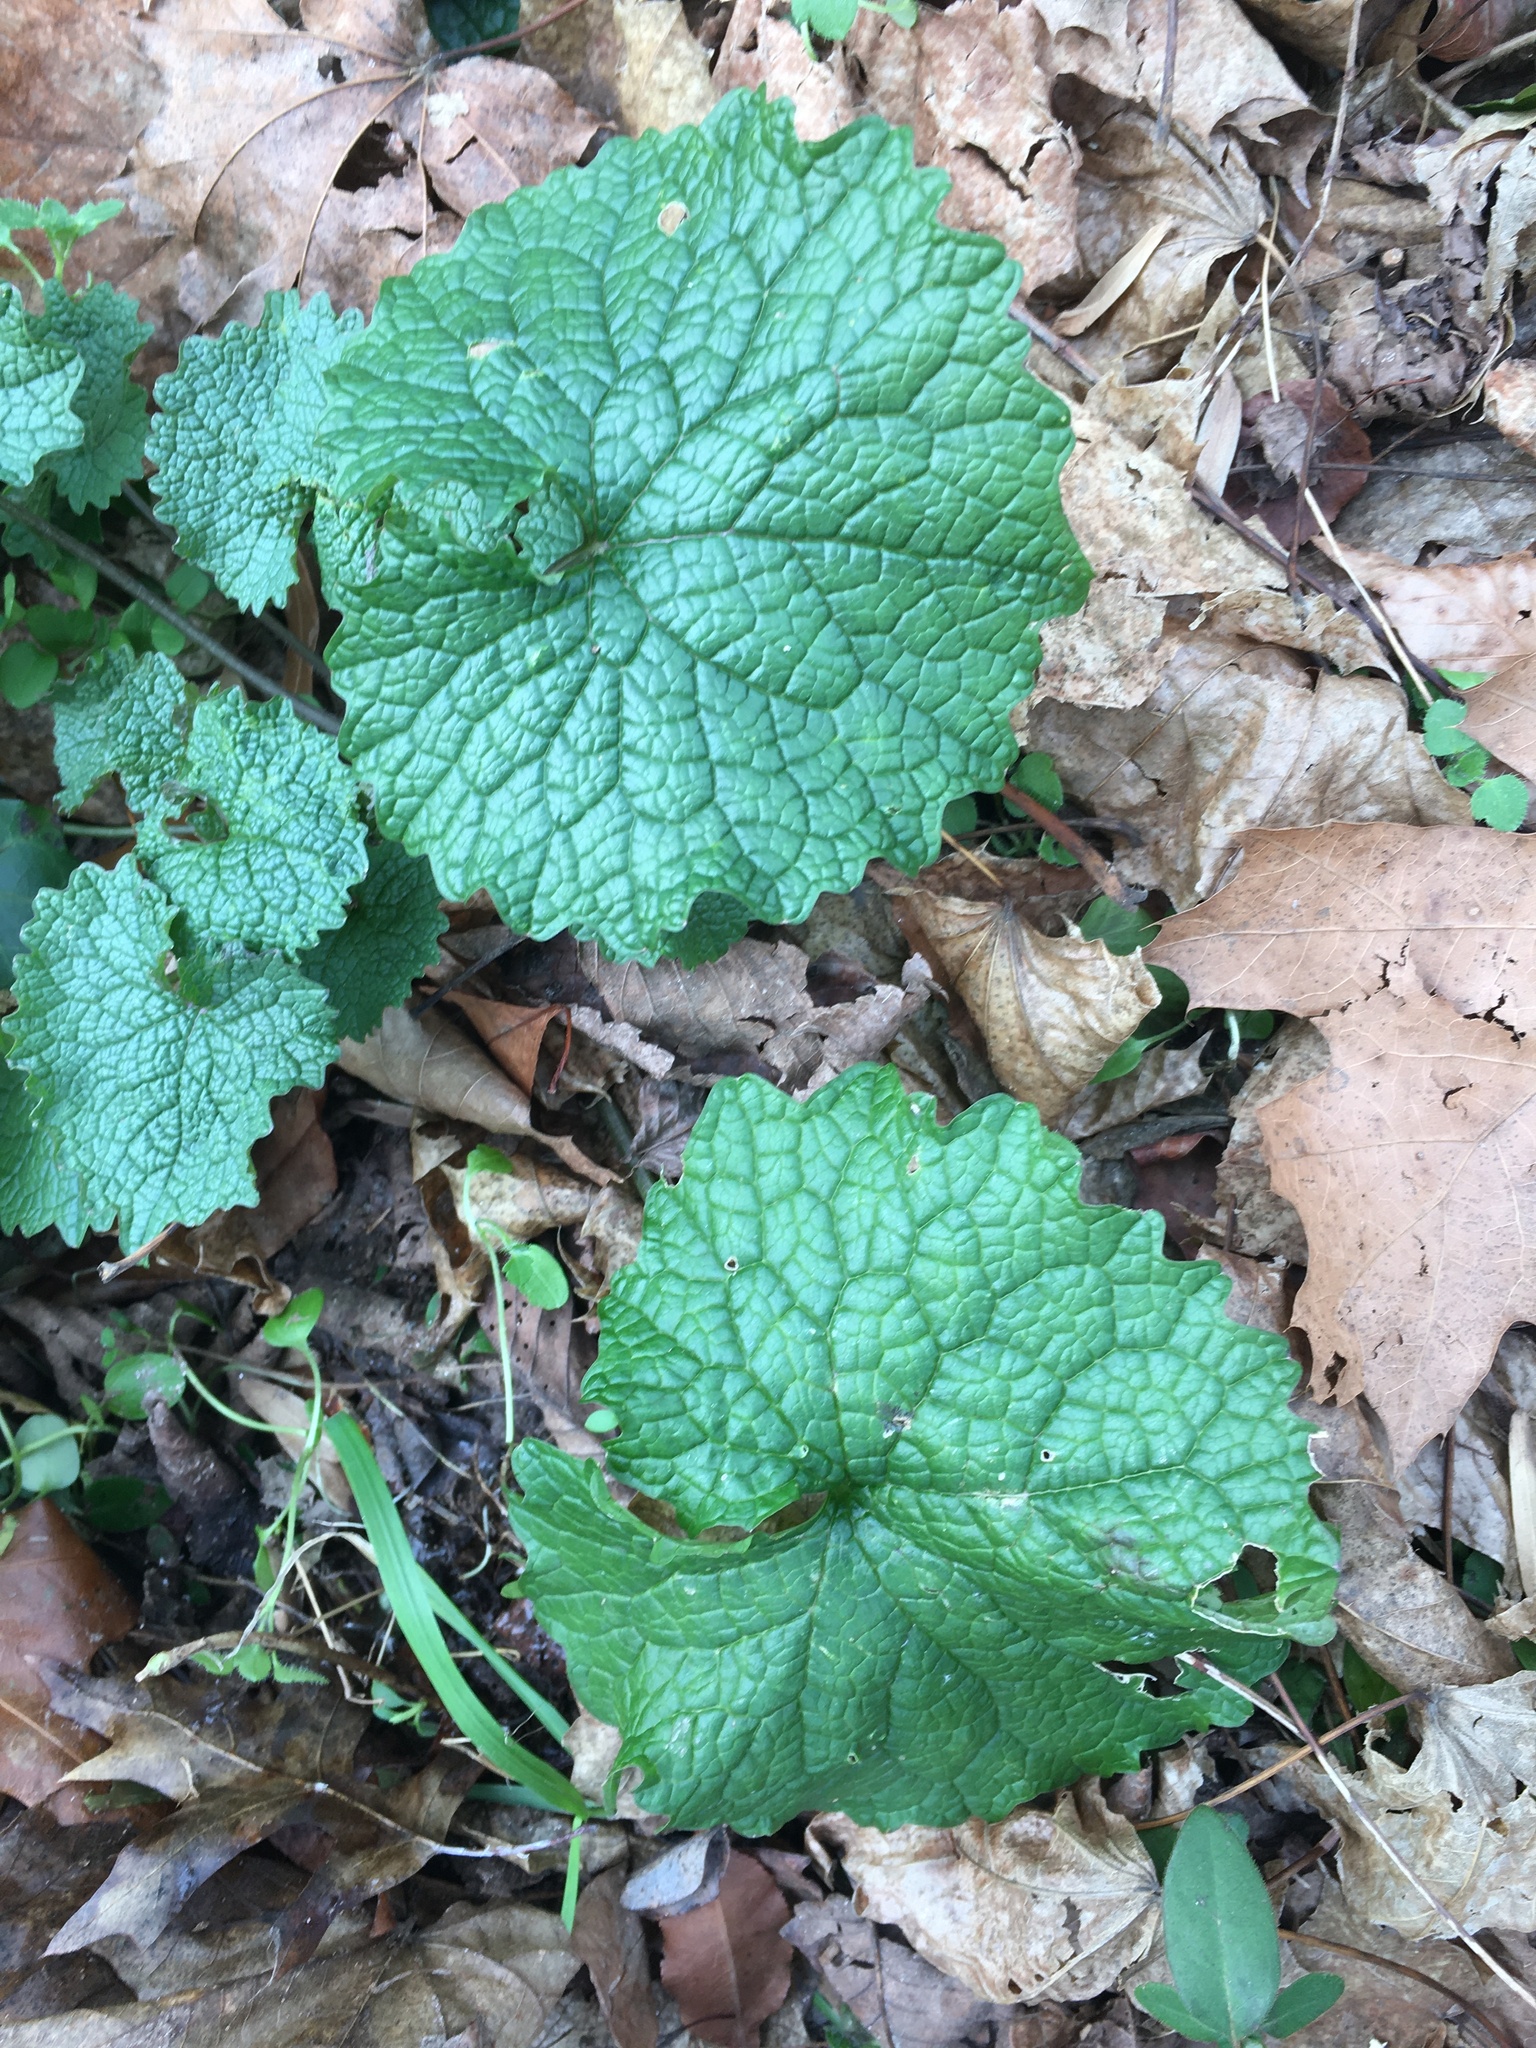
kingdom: Plantae
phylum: Tracheophyta
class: Magnoliopsida
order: Brassicales
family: Brassicaceae
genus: Alliaria
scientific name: Alliaria petiolata
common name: Garlic mustard
